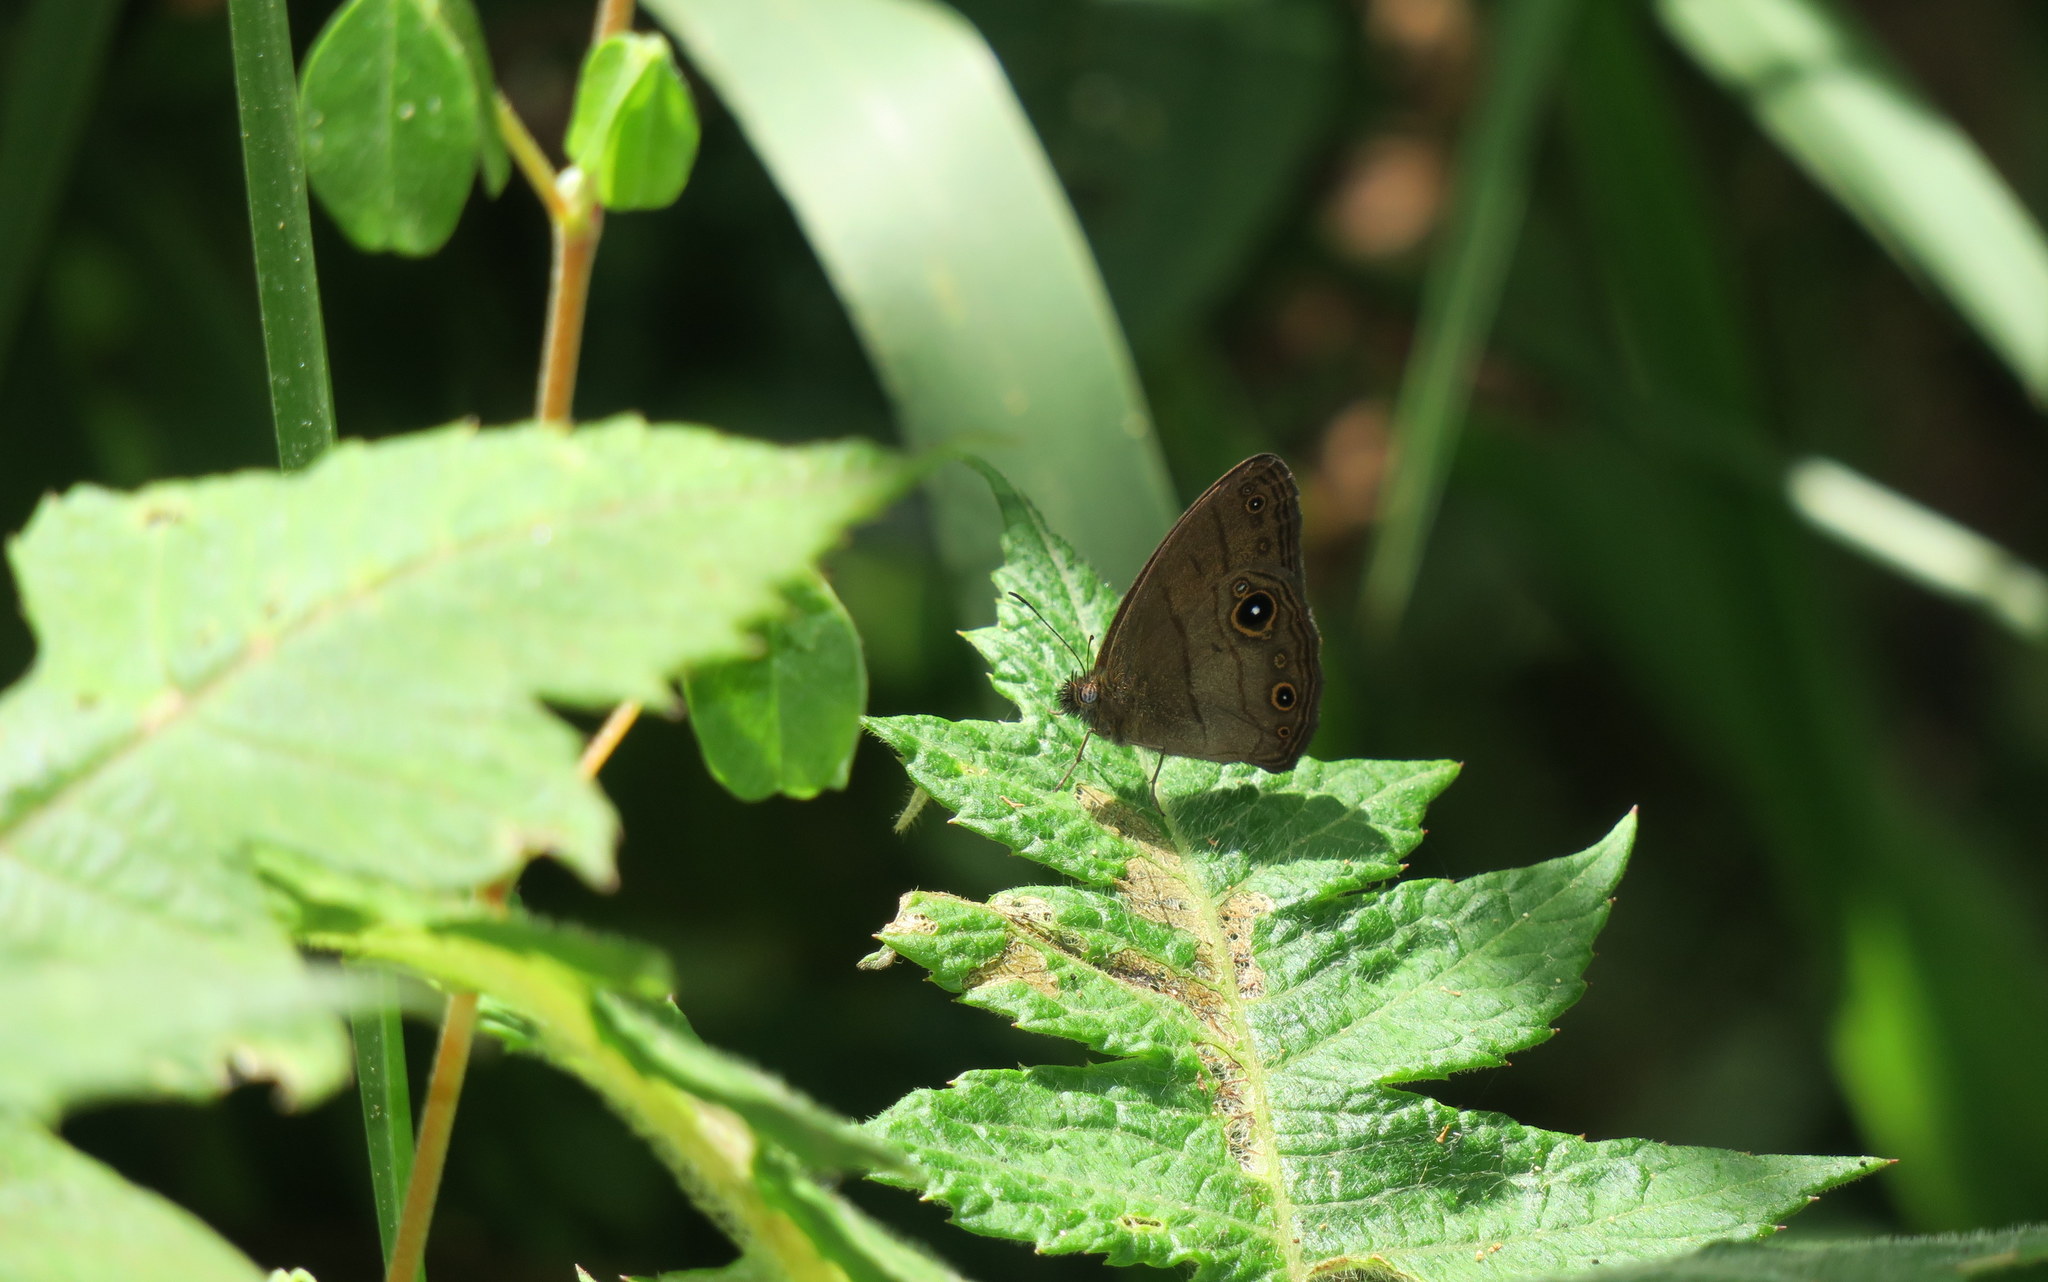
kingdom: Animalia
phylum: Arthropoda
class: Insecta
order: Lepidoptera
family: Nymphalidae
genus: Hermeuptychia
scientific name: Hermeuptychia harmonia
